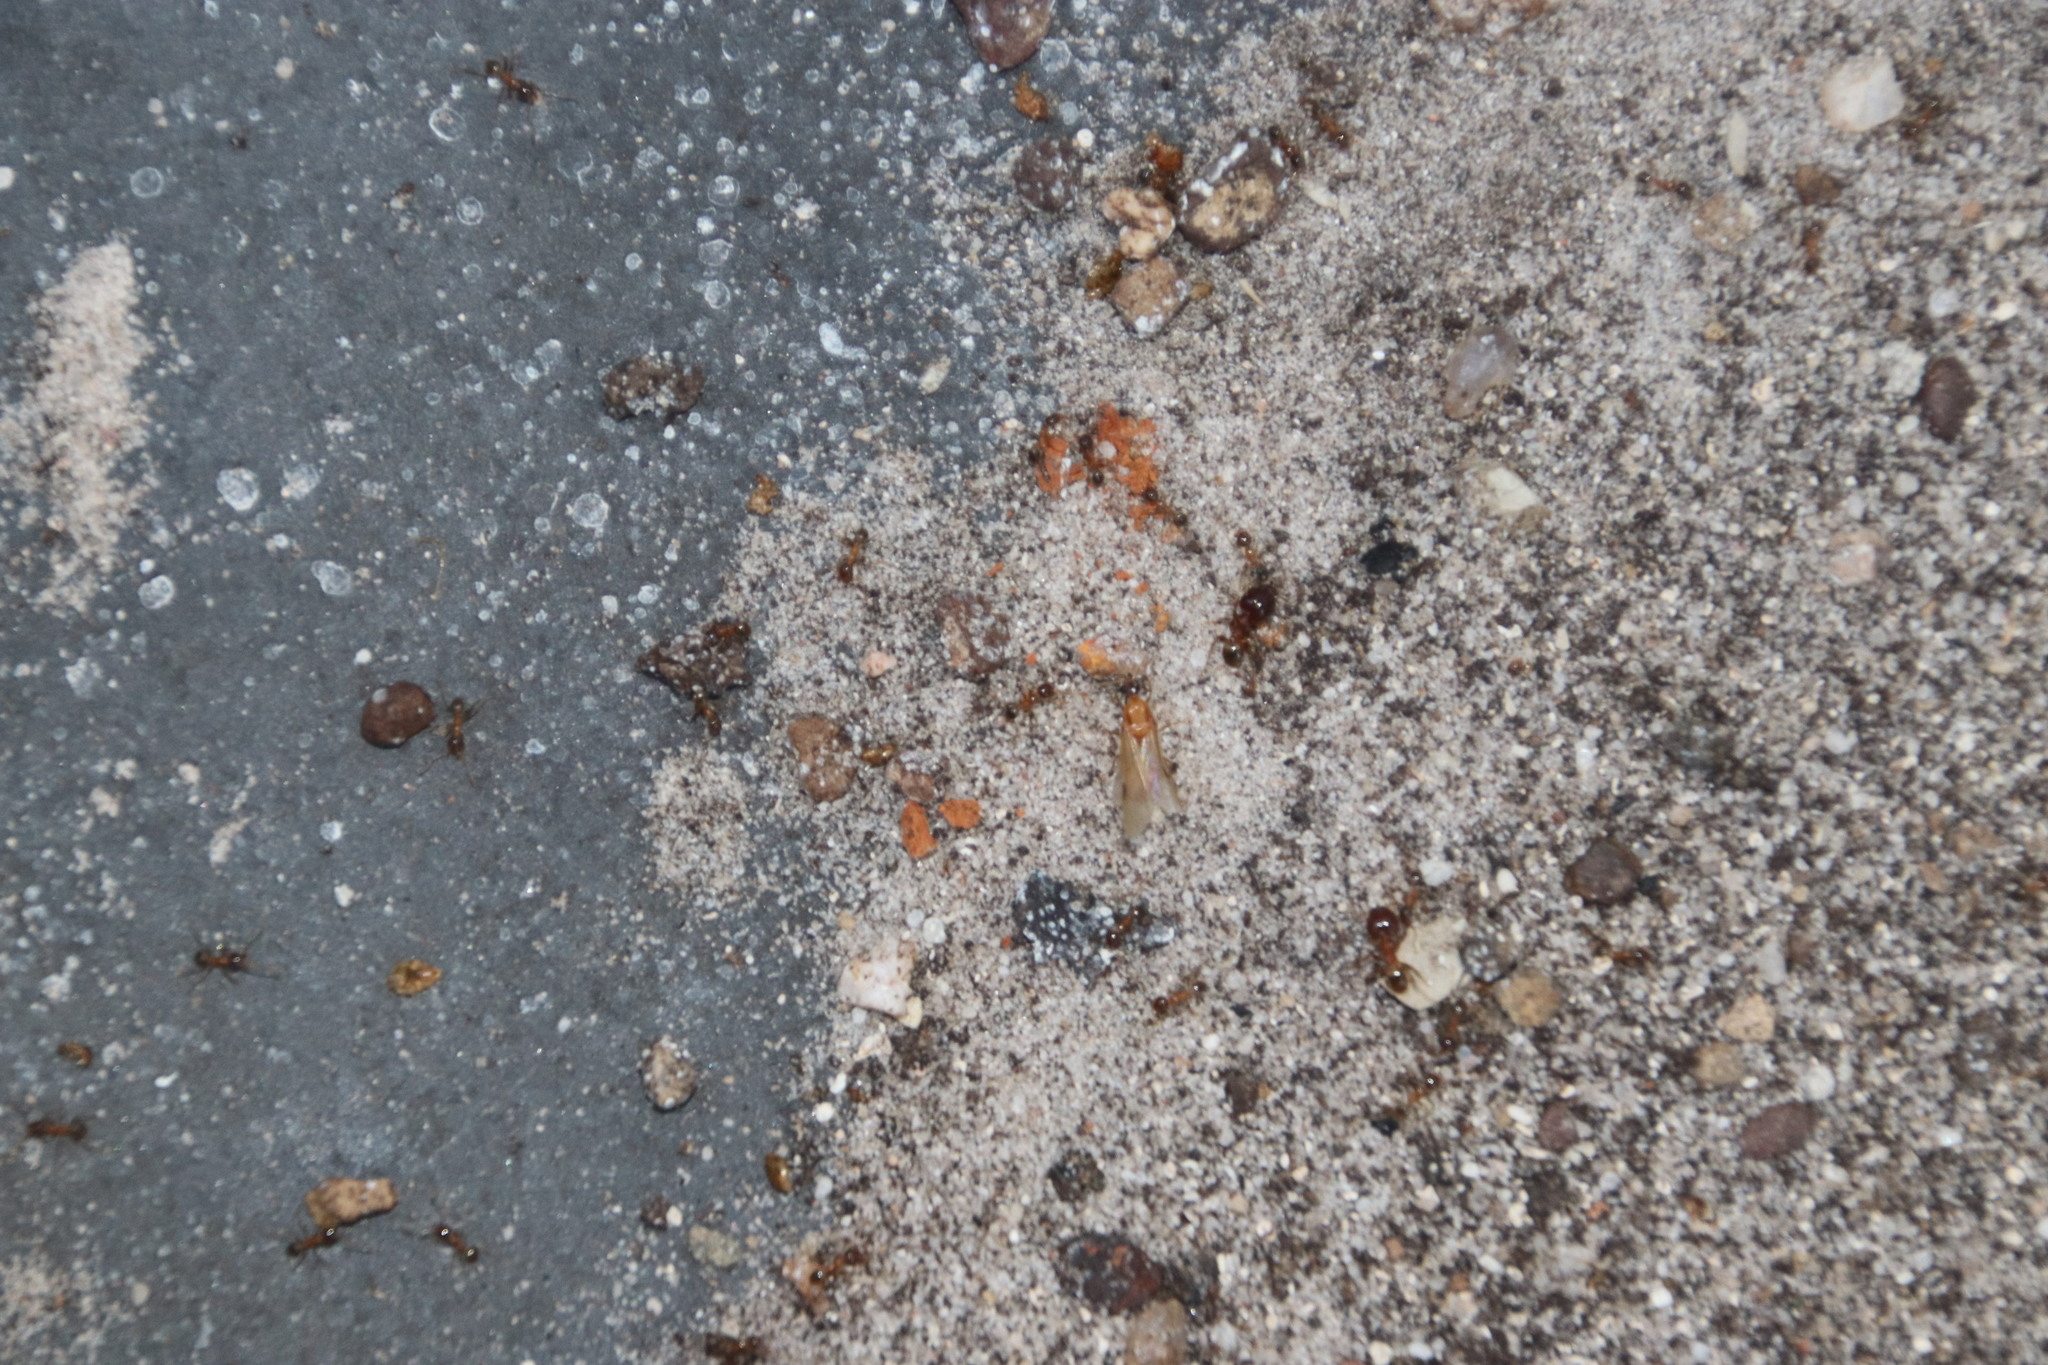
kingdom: Animalia
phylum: Arthropoda
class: Insecta
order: Hymenoptera
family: Formicidae
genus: Pheidole
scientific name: Pheidole megacephala
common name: Bigheaded ant
